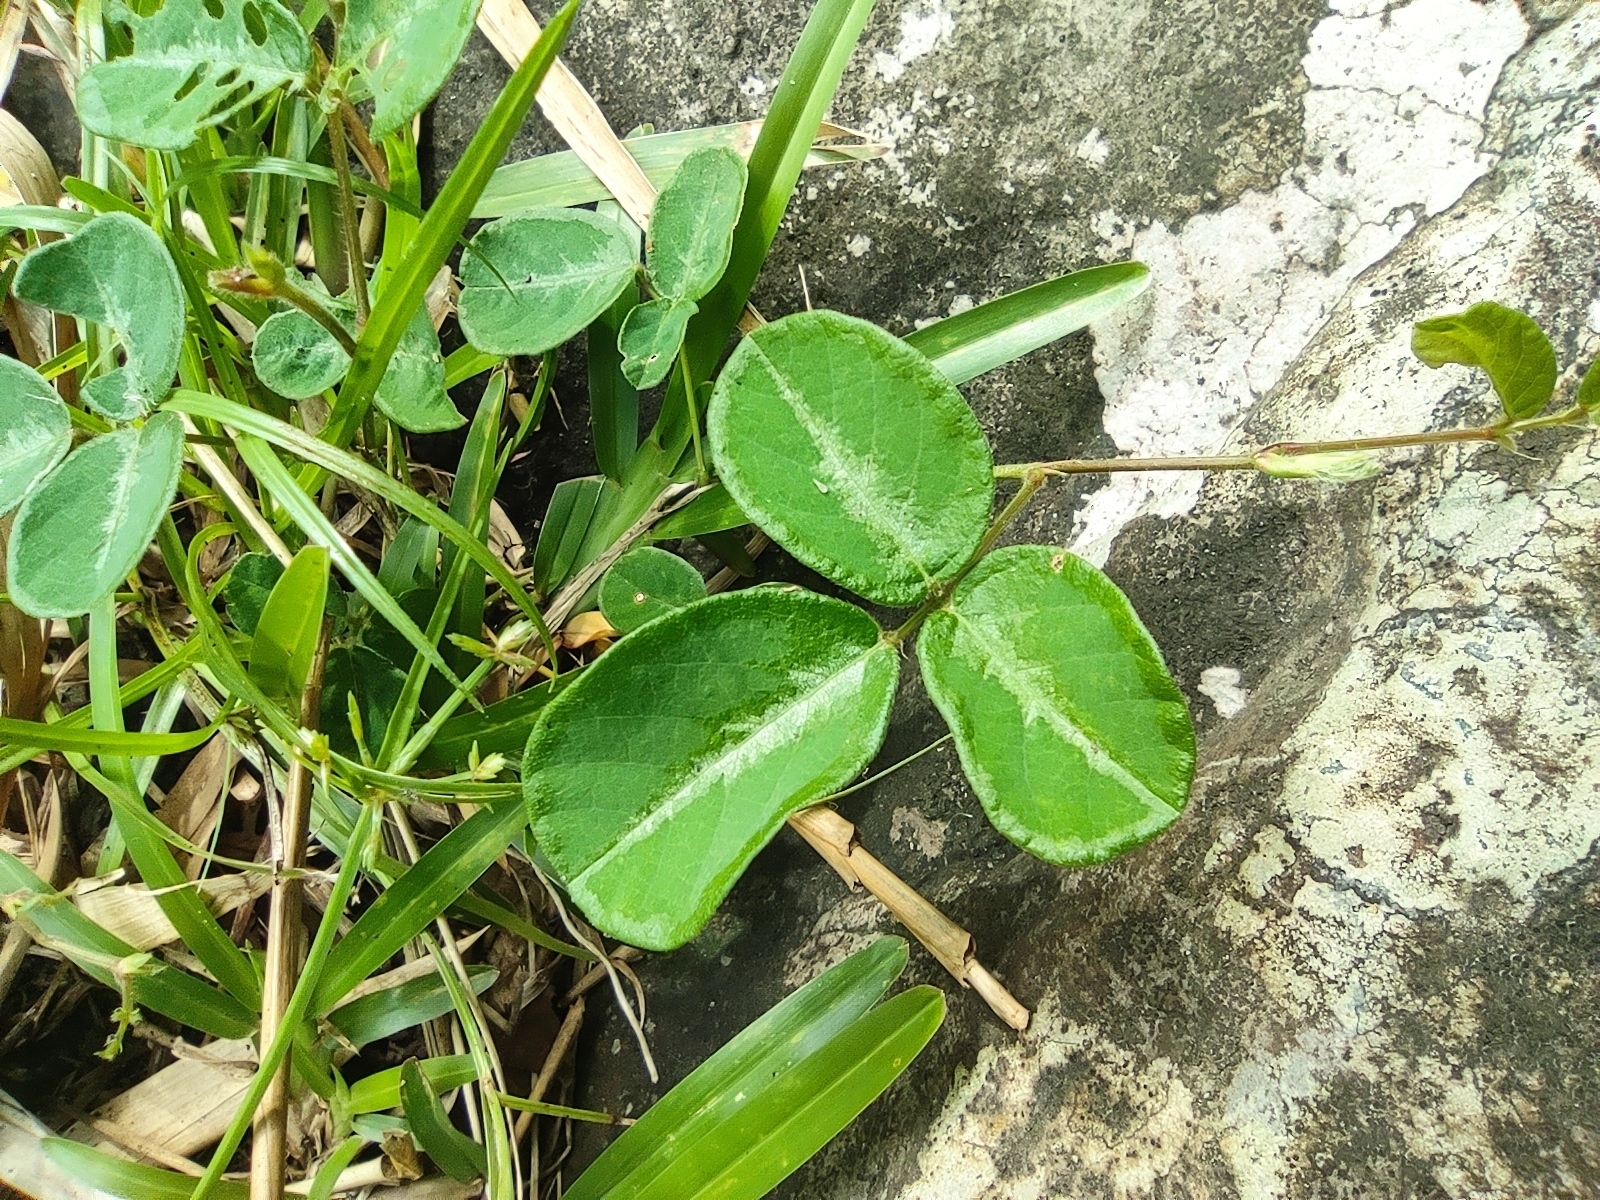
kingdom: Plantae
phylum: Tracheophyta
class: Magnoliopsida
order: Fabales
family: Fabaceae
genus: Desmodium
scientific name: Desmodium incanum
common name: Tickclover
